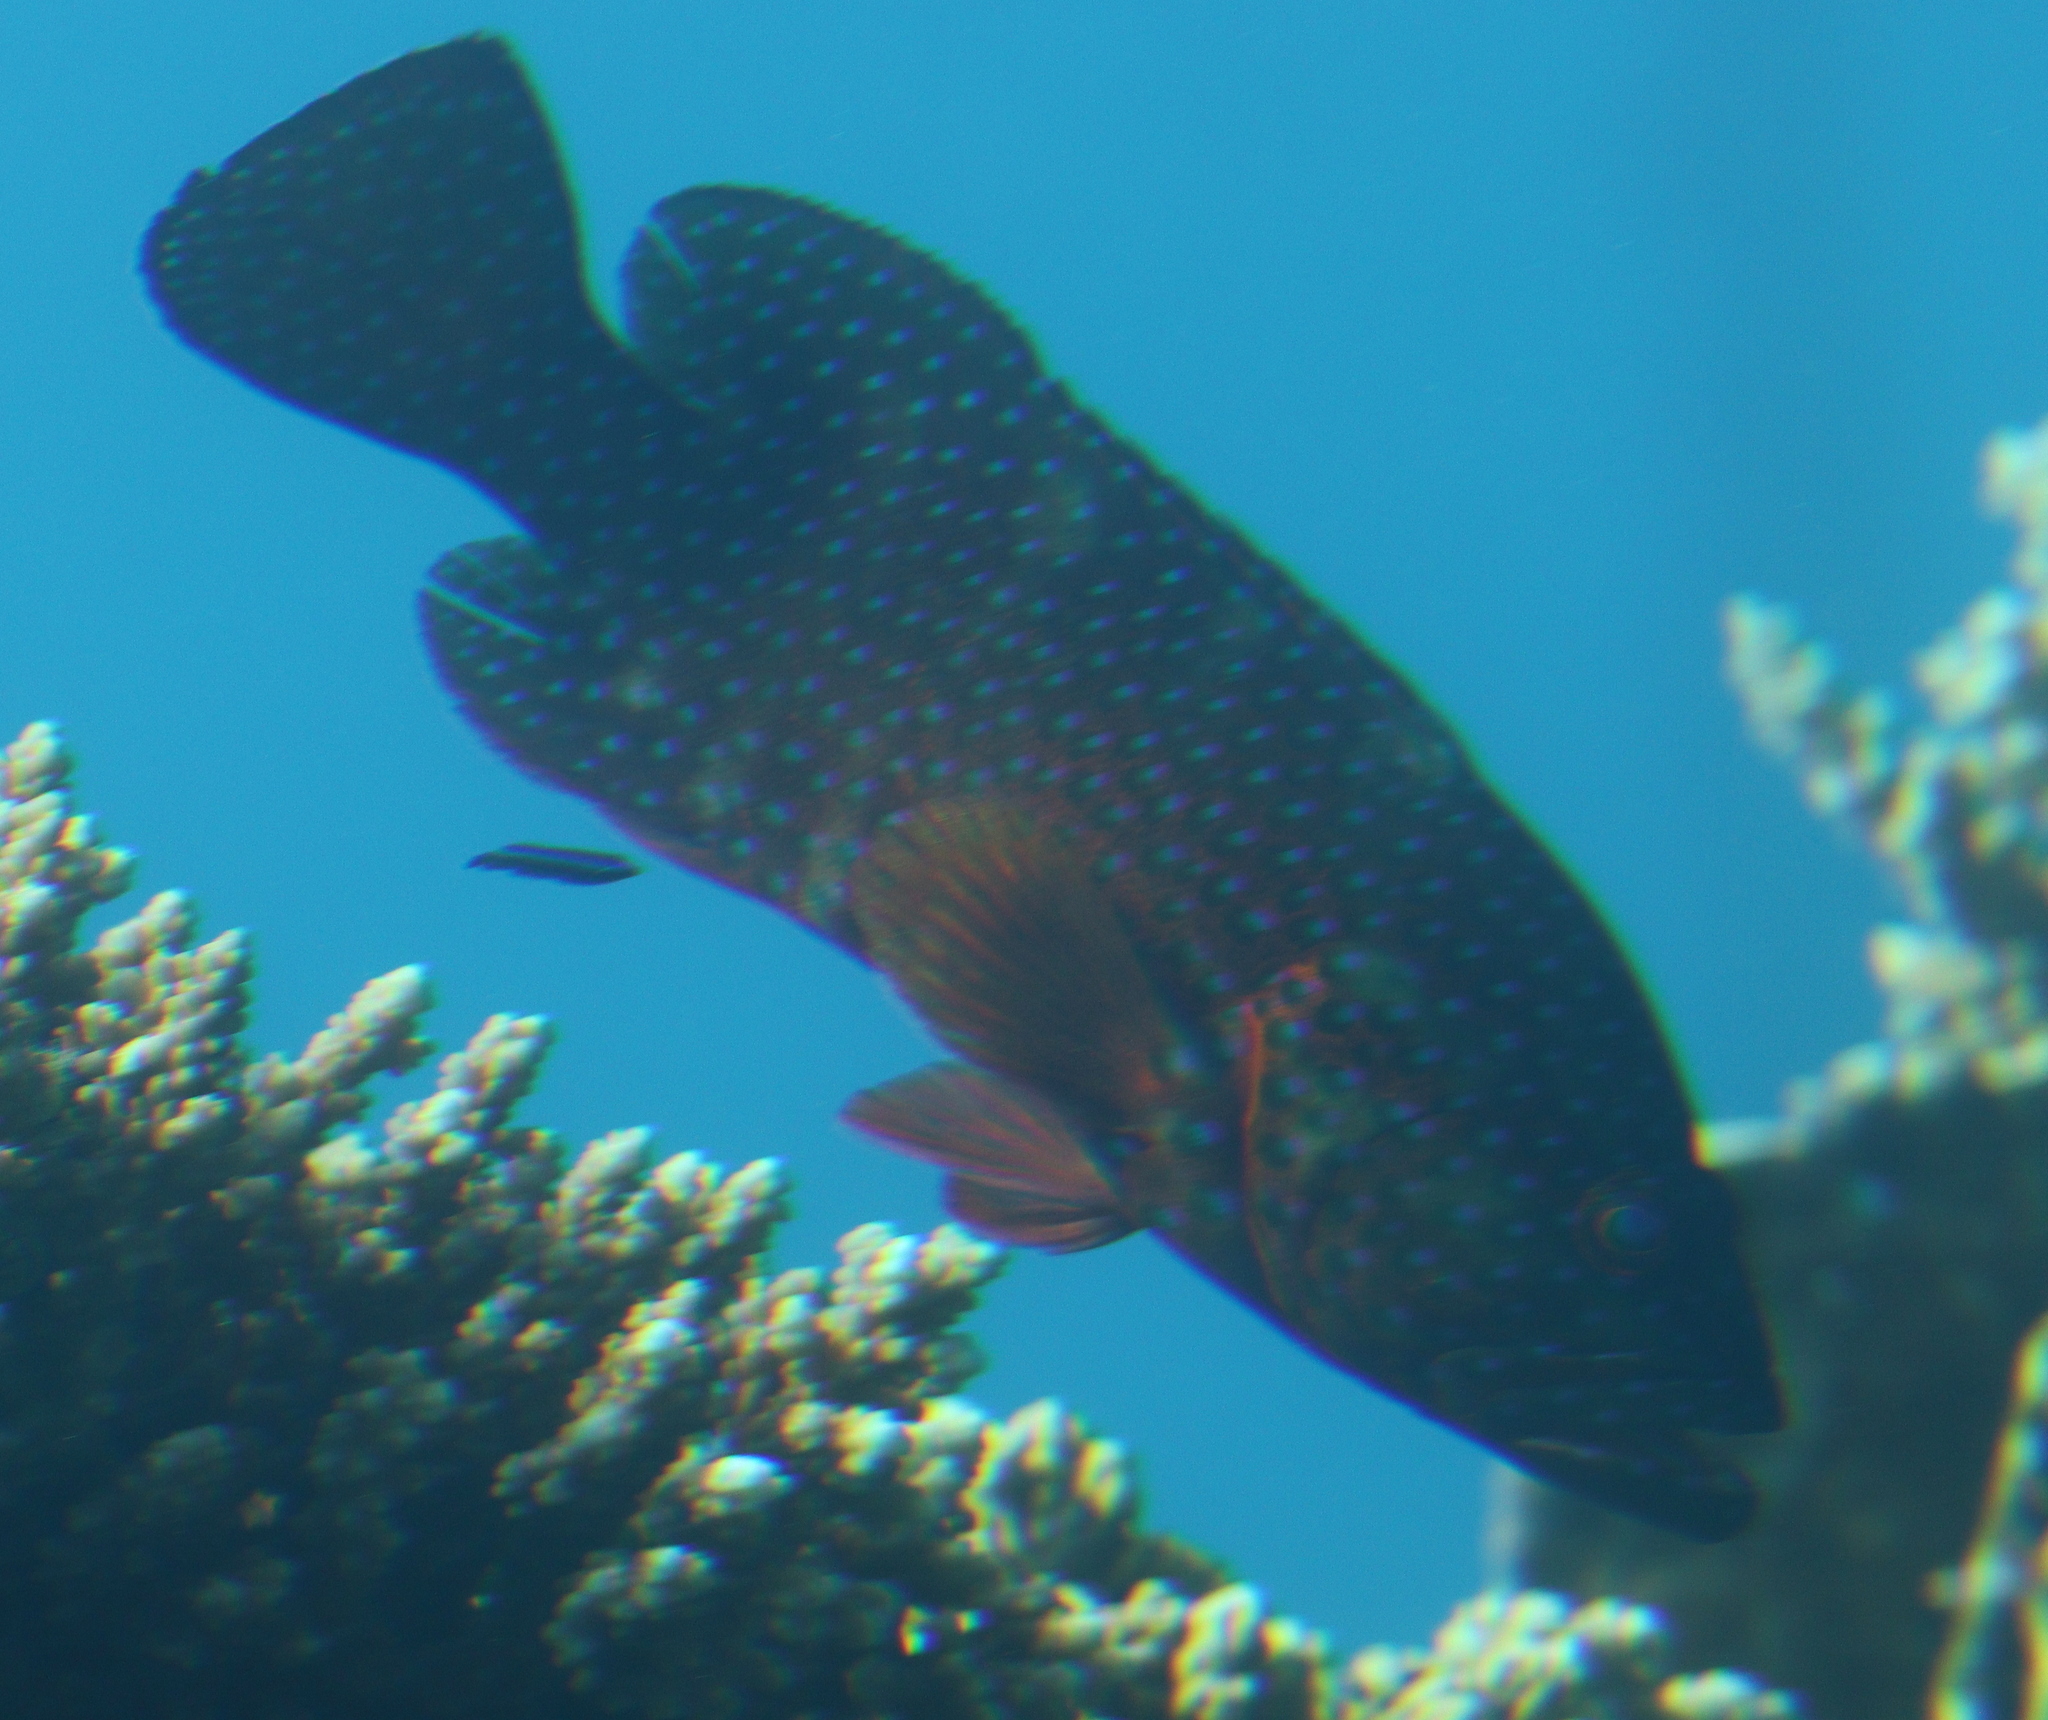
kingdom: Animalia
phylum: Chordata
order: Perciformes
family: Serranidae
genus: Cephalopholis
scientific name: Cephalopholis miniata
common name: Coral hind
